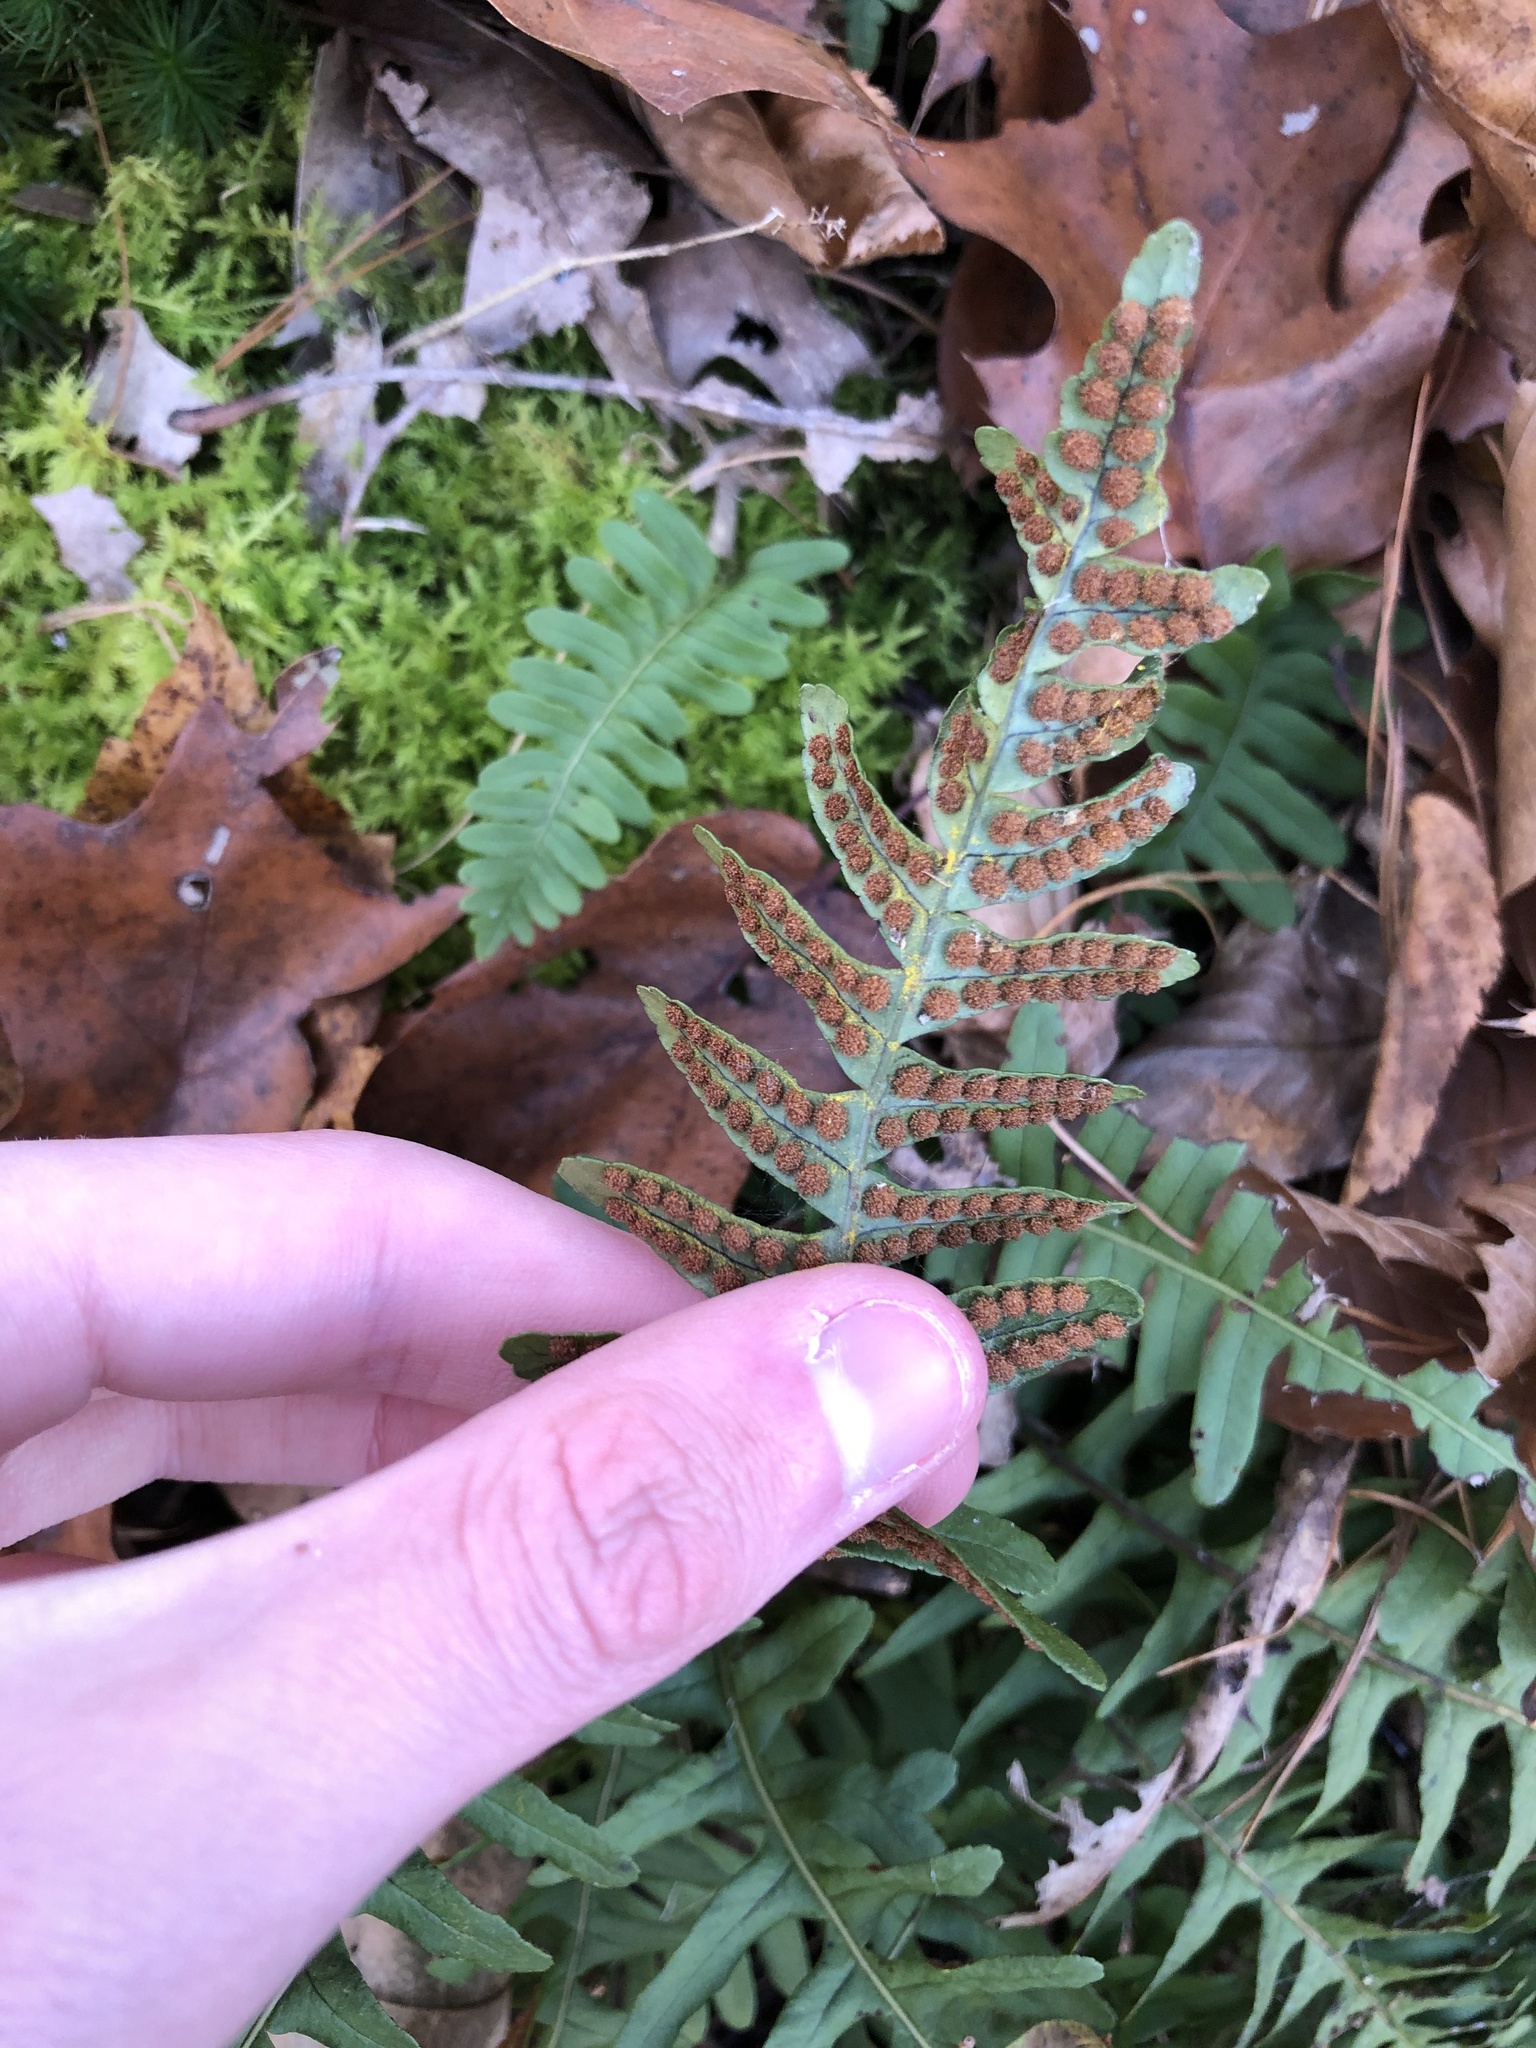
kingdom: Plantae
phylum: Tracheophyta
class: Polypodiopsida
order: Polypodiales
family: Polypodiaceae
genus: Polypodium
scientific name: Polypodium virginianum
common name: American wall fern
